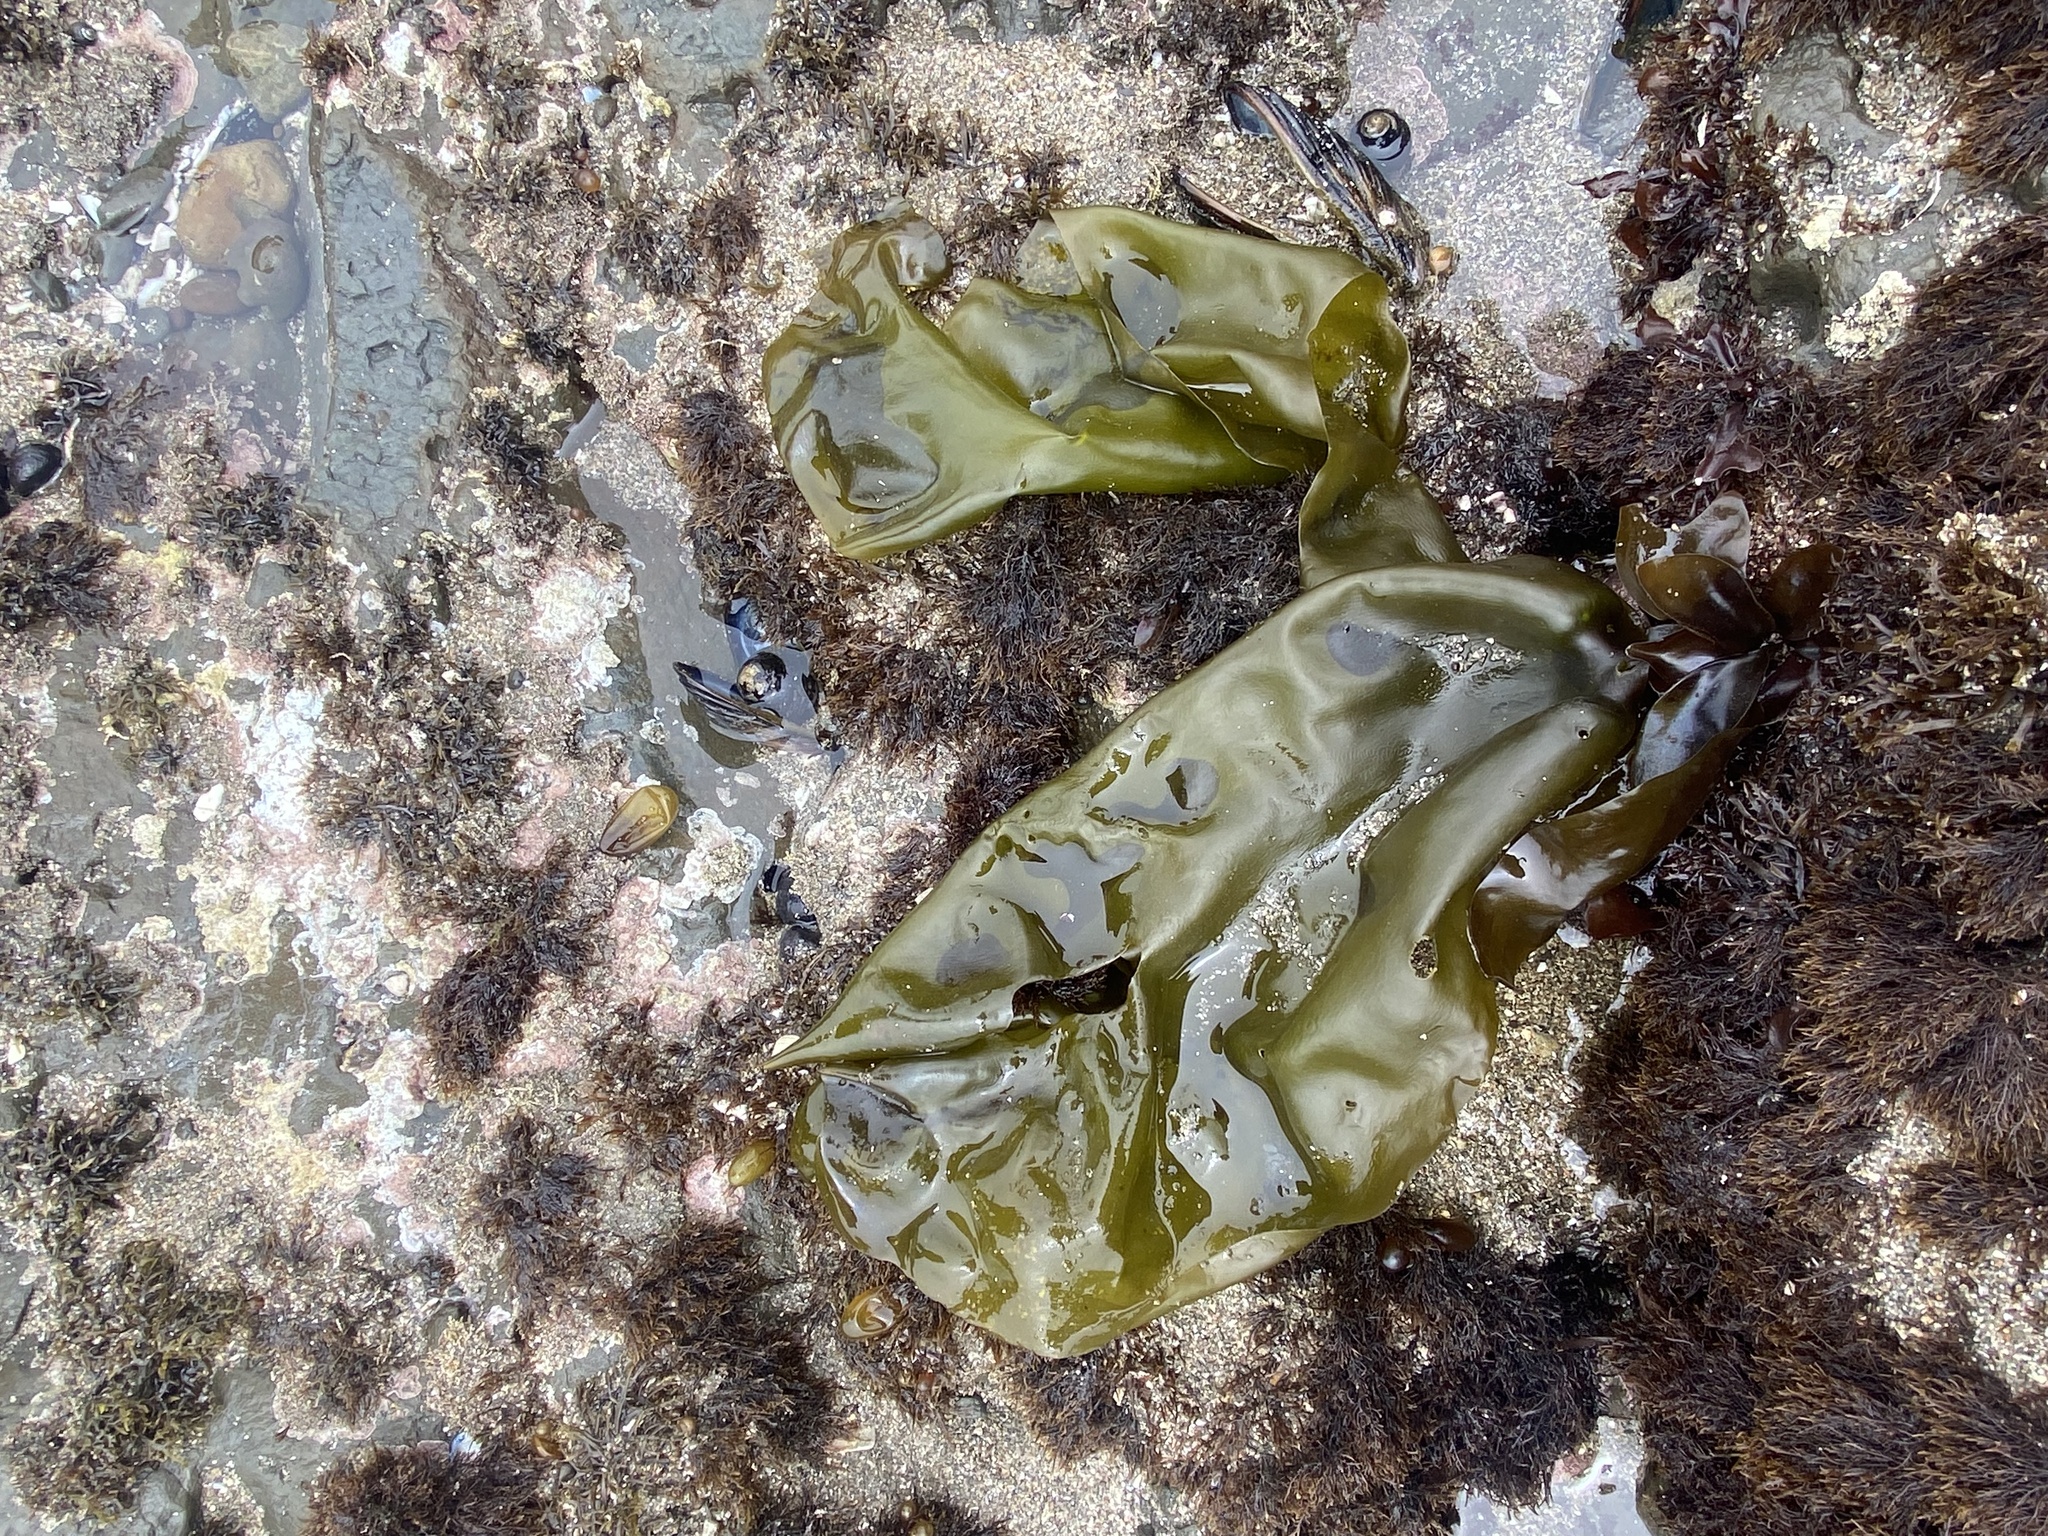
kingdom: Plantae
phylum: Rhodophyta
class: Florideophyceae
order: Gigartinales
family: Gigartinaceae
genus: Mazzaella
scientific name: Mazzaella flaccida
